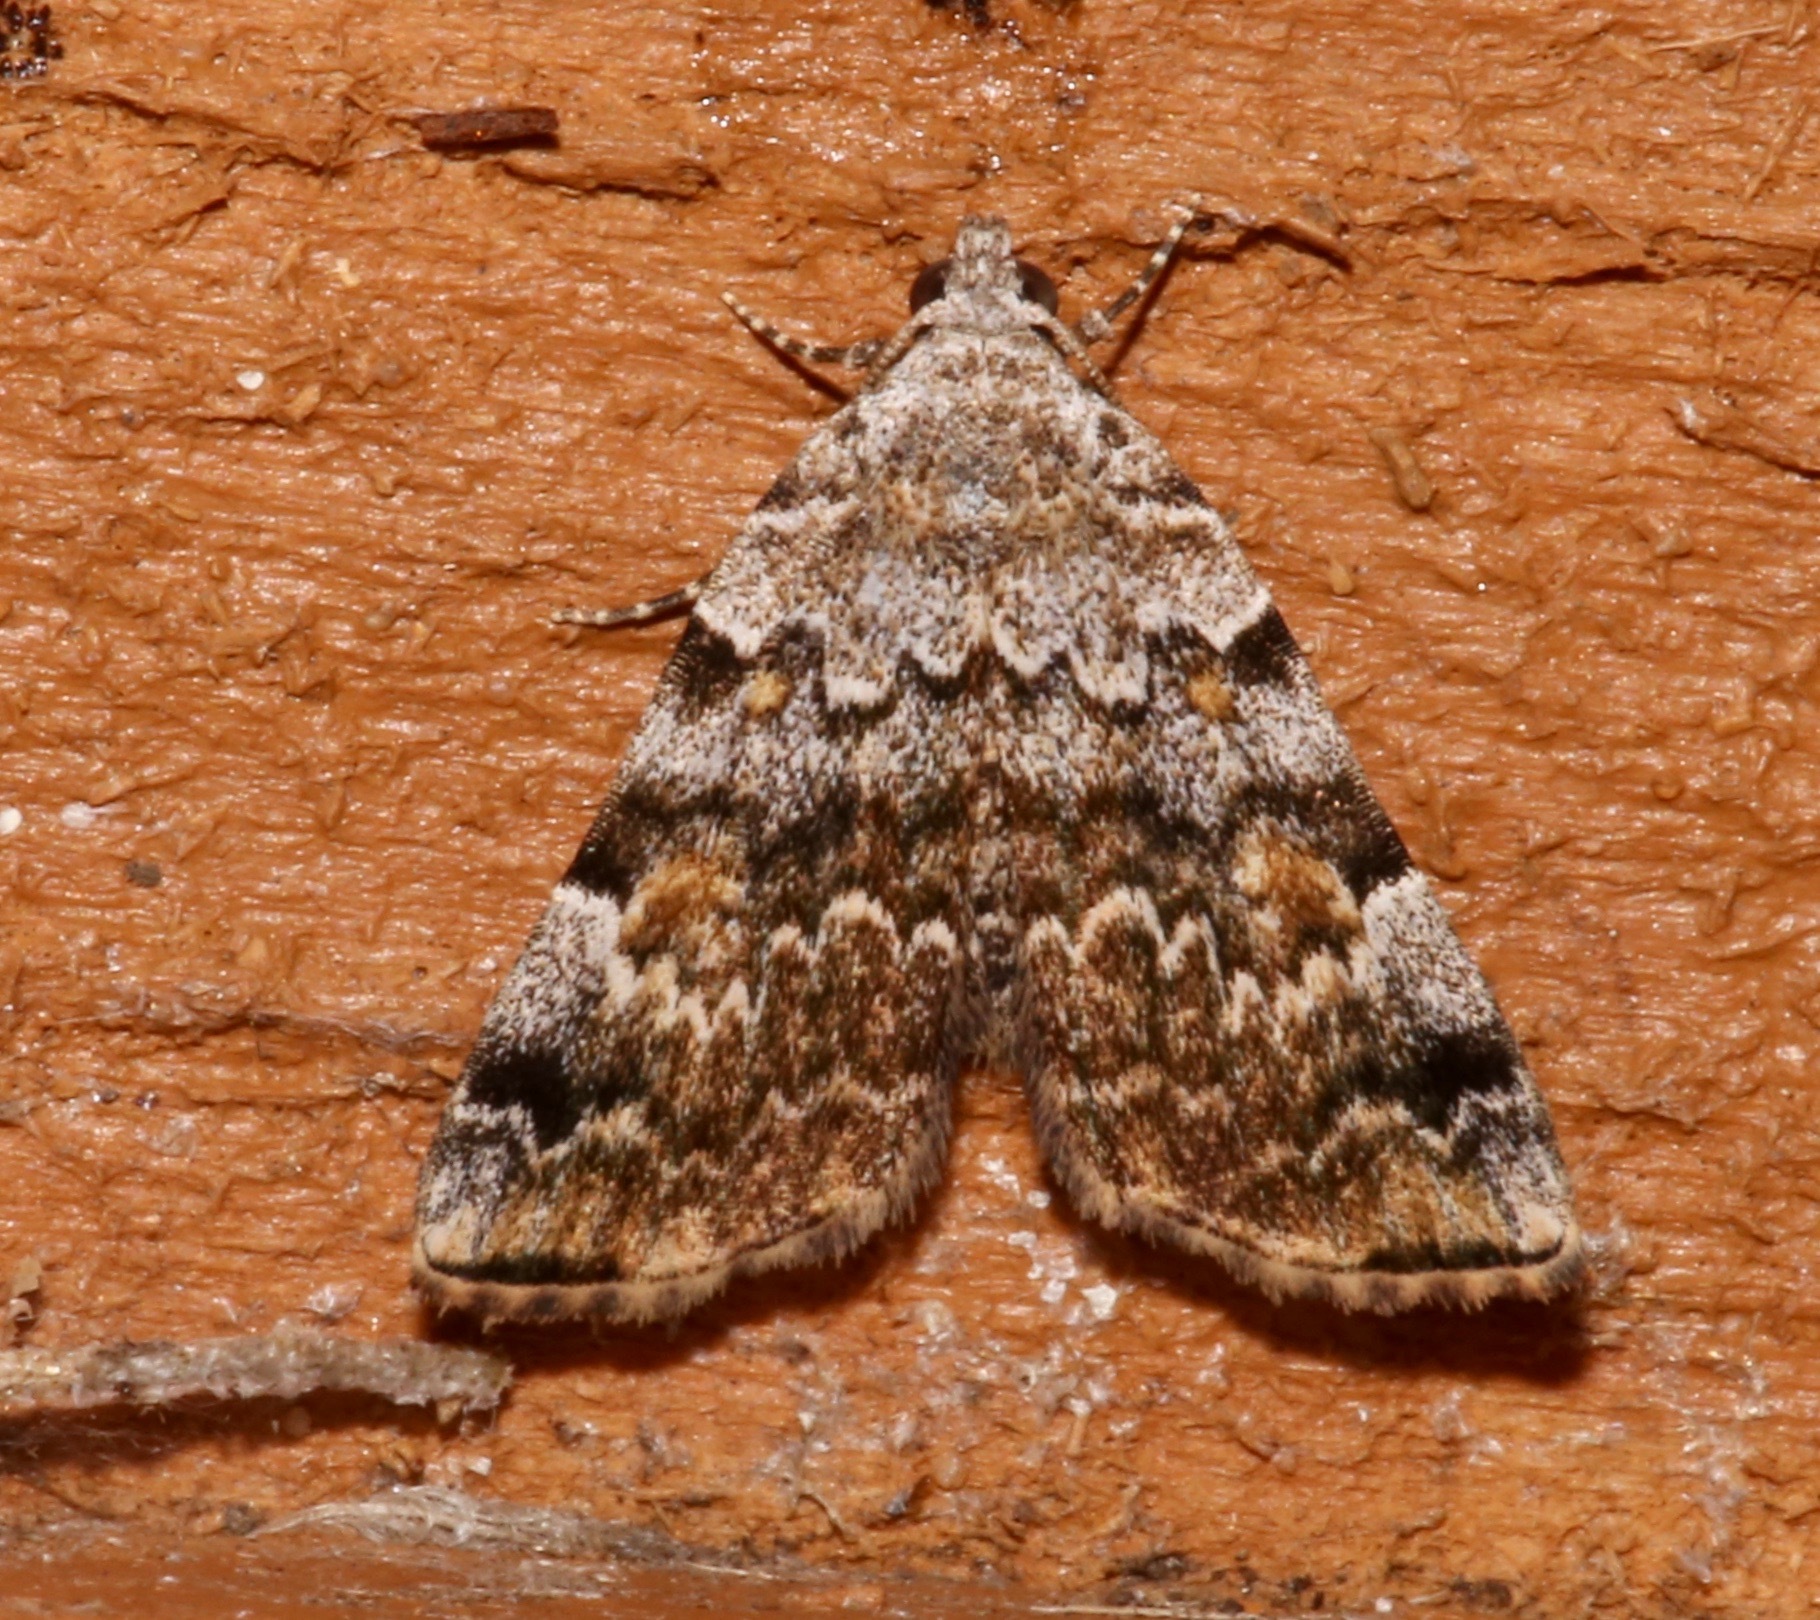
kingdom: Animalia
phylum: Arthropoda
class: Insecta
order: Lepidoptera
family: Erebidae
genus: Idia
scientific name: Idia americalis
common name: American idia moth
